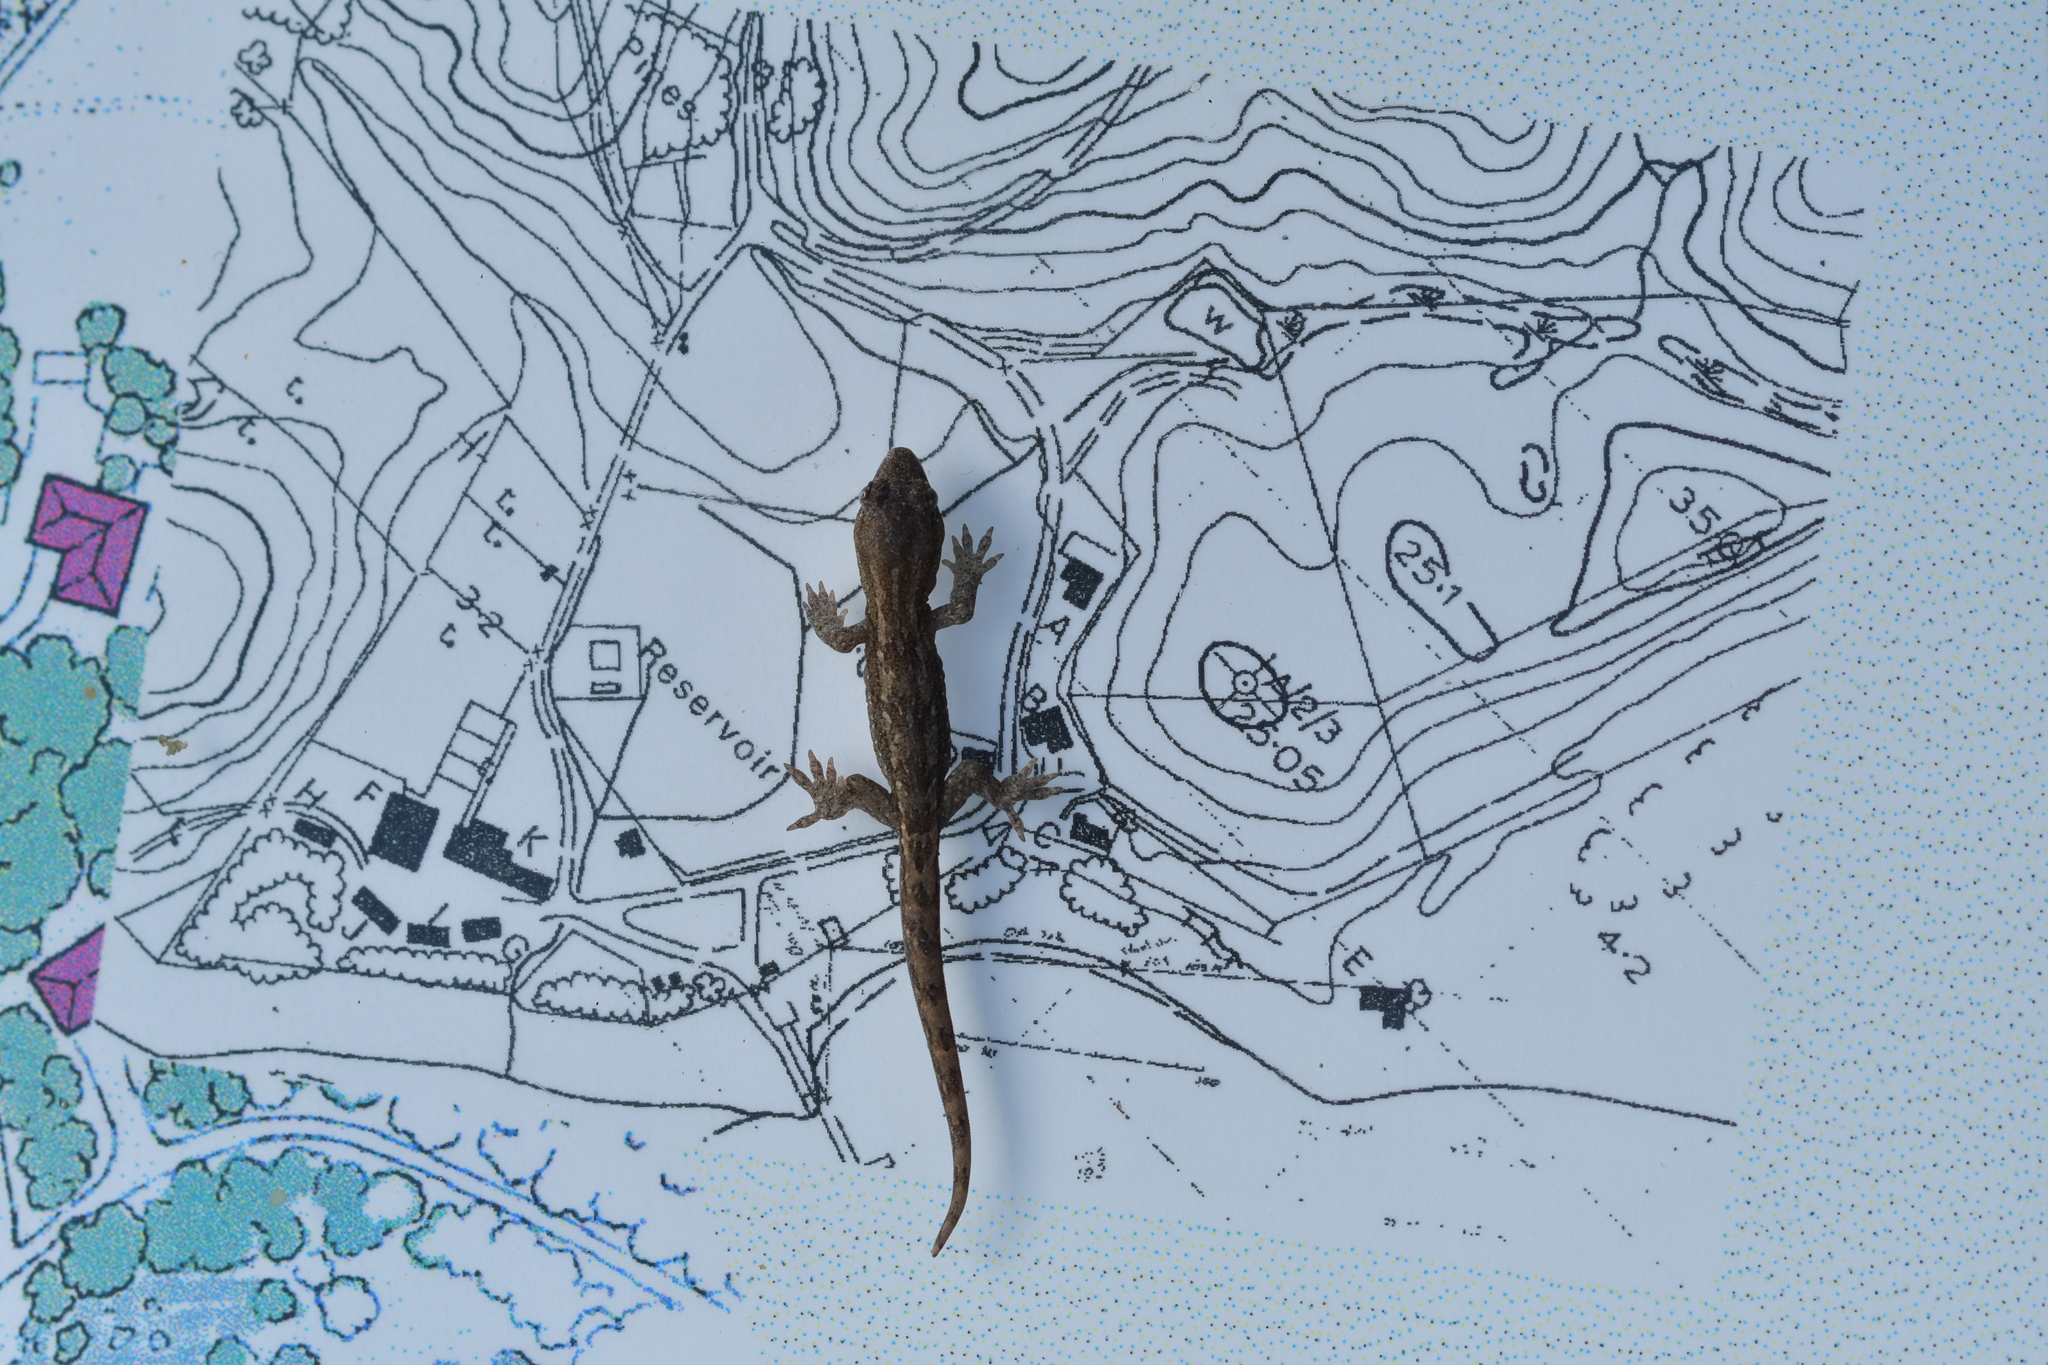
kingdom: Animalia
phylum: Chordata
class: Squamata
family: Diplodactylidae
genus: Woodworthia
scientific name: Woodworthia maculata
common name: Raukawa gecko
